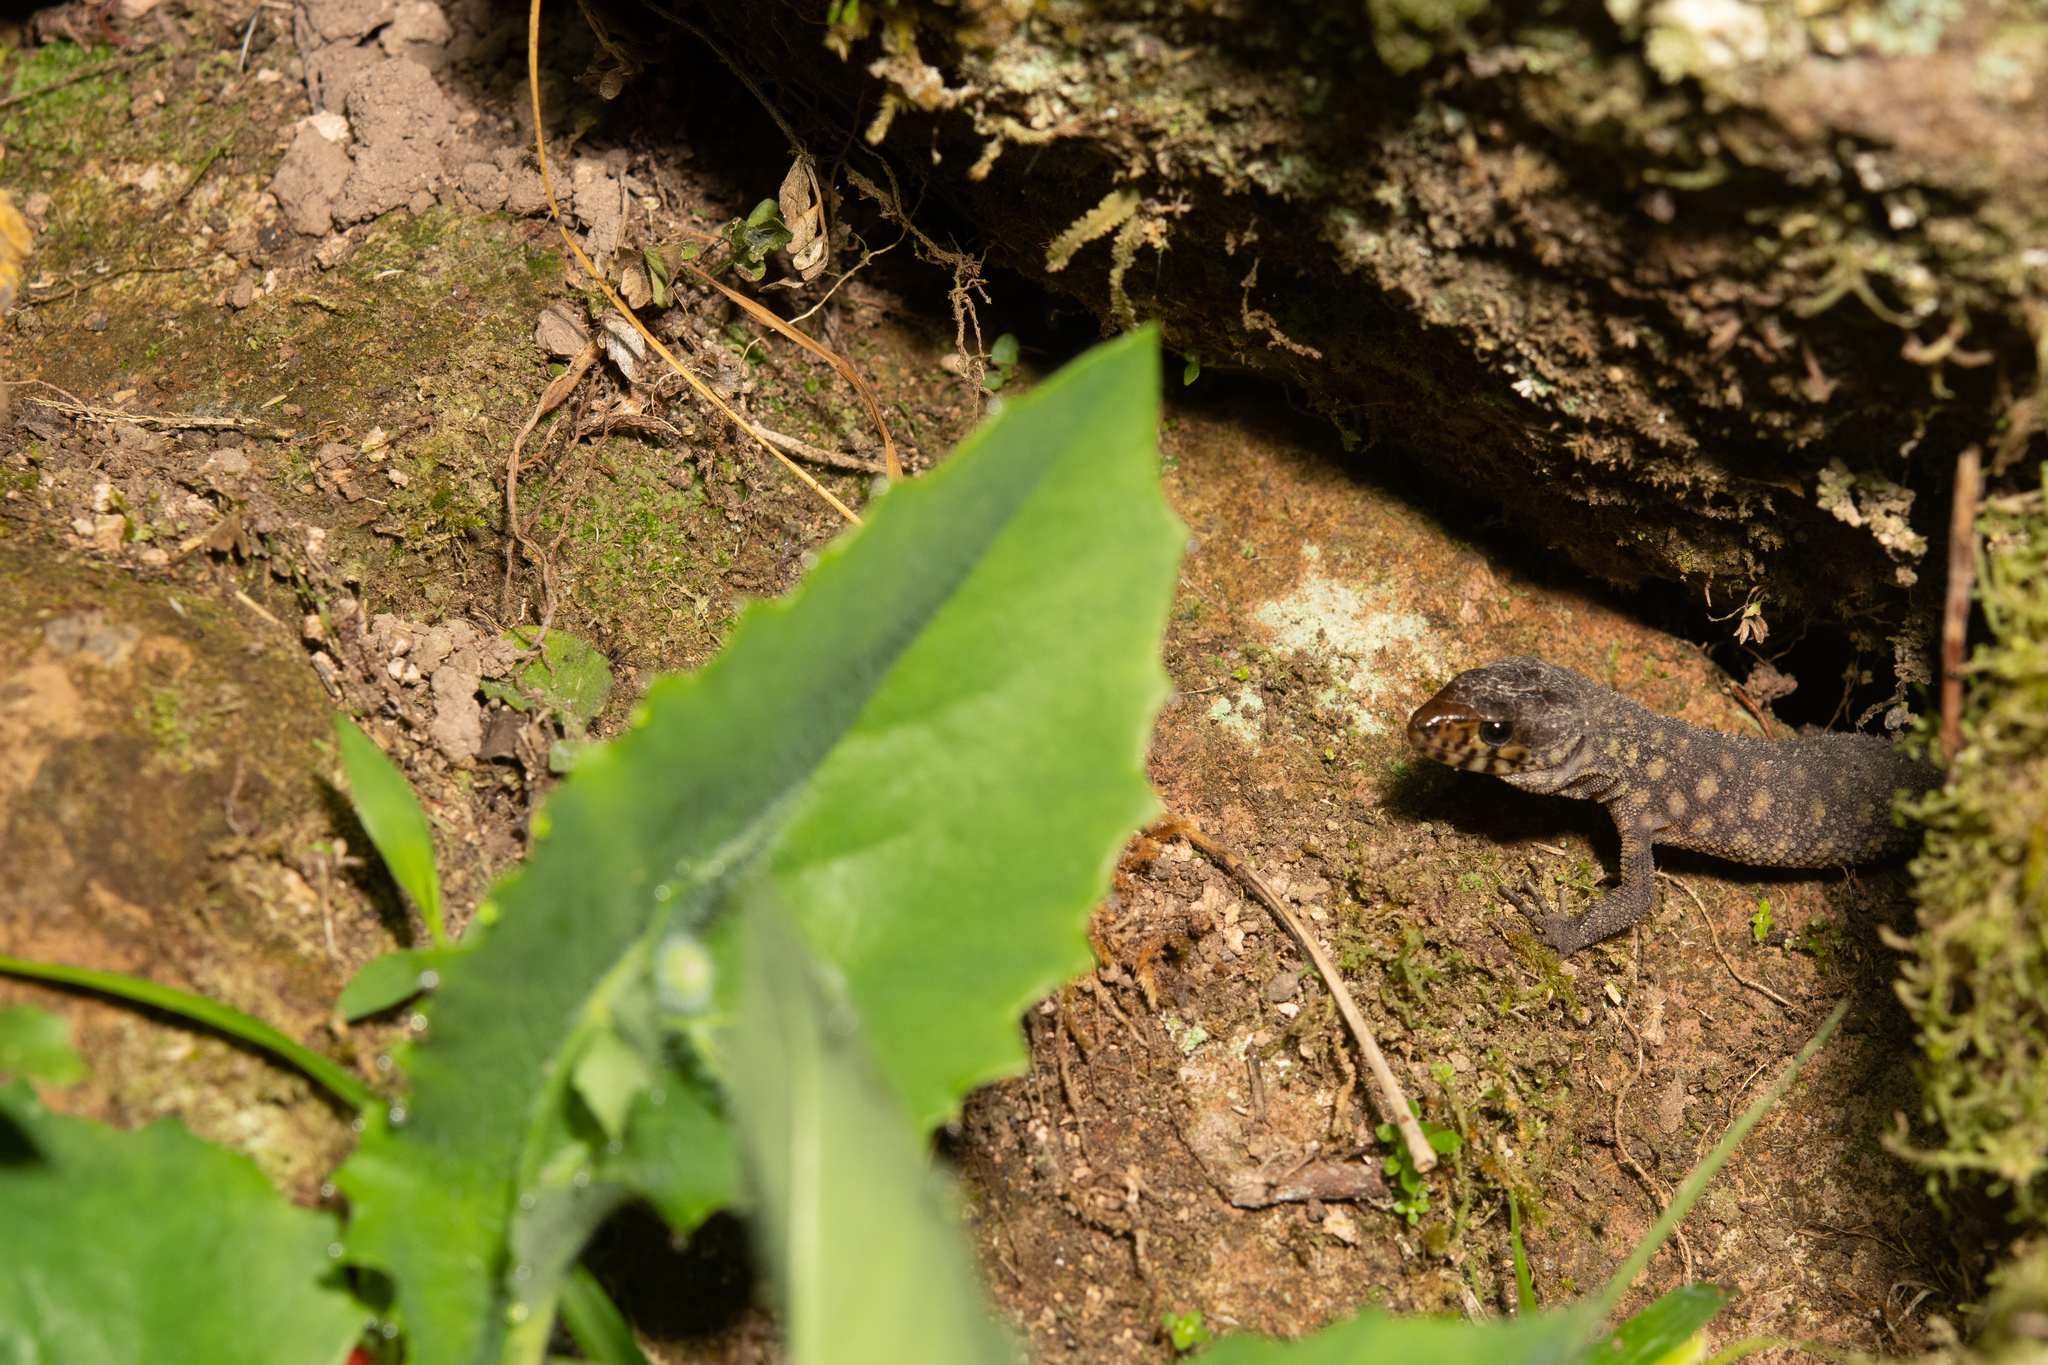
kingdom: Animalia
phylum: Chordata
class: Squamata
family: Xantusiidae
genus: Lepidophyma
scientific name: Lepidophyma flavimaculatum
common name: Yellow-spotted night lizard
